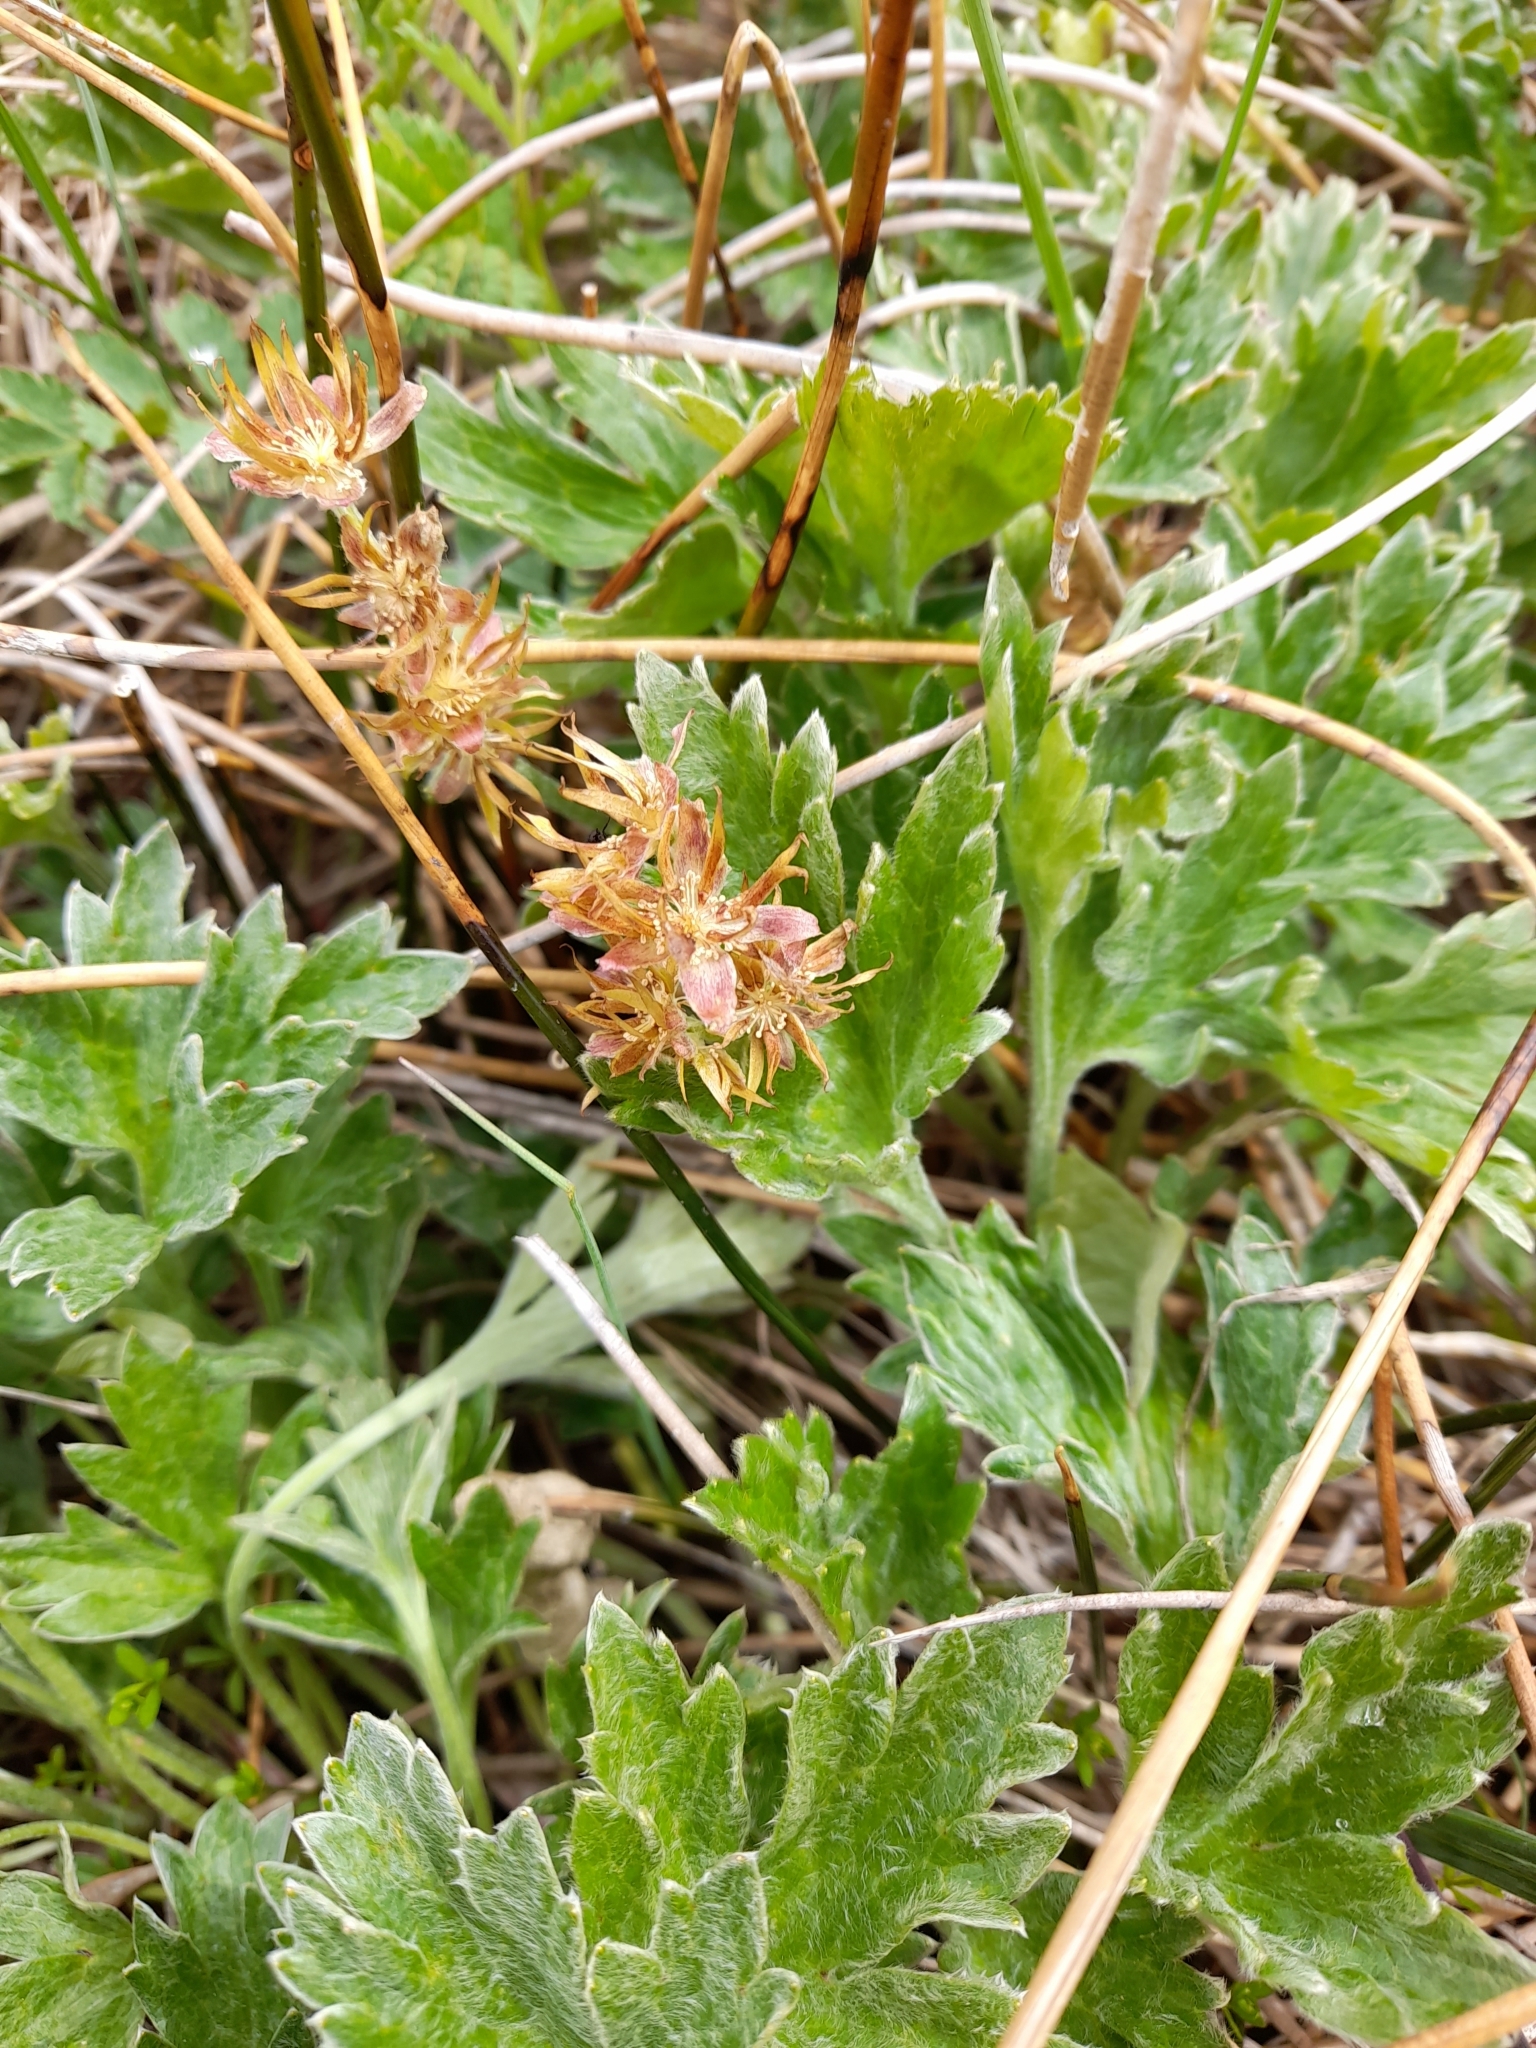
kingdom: Plantae
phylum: Tracheophyta
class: Magnoliopsida
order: Ranunculales
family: Ranunculaceae
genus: Hamadryas
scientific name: Hamadryas magellanica
